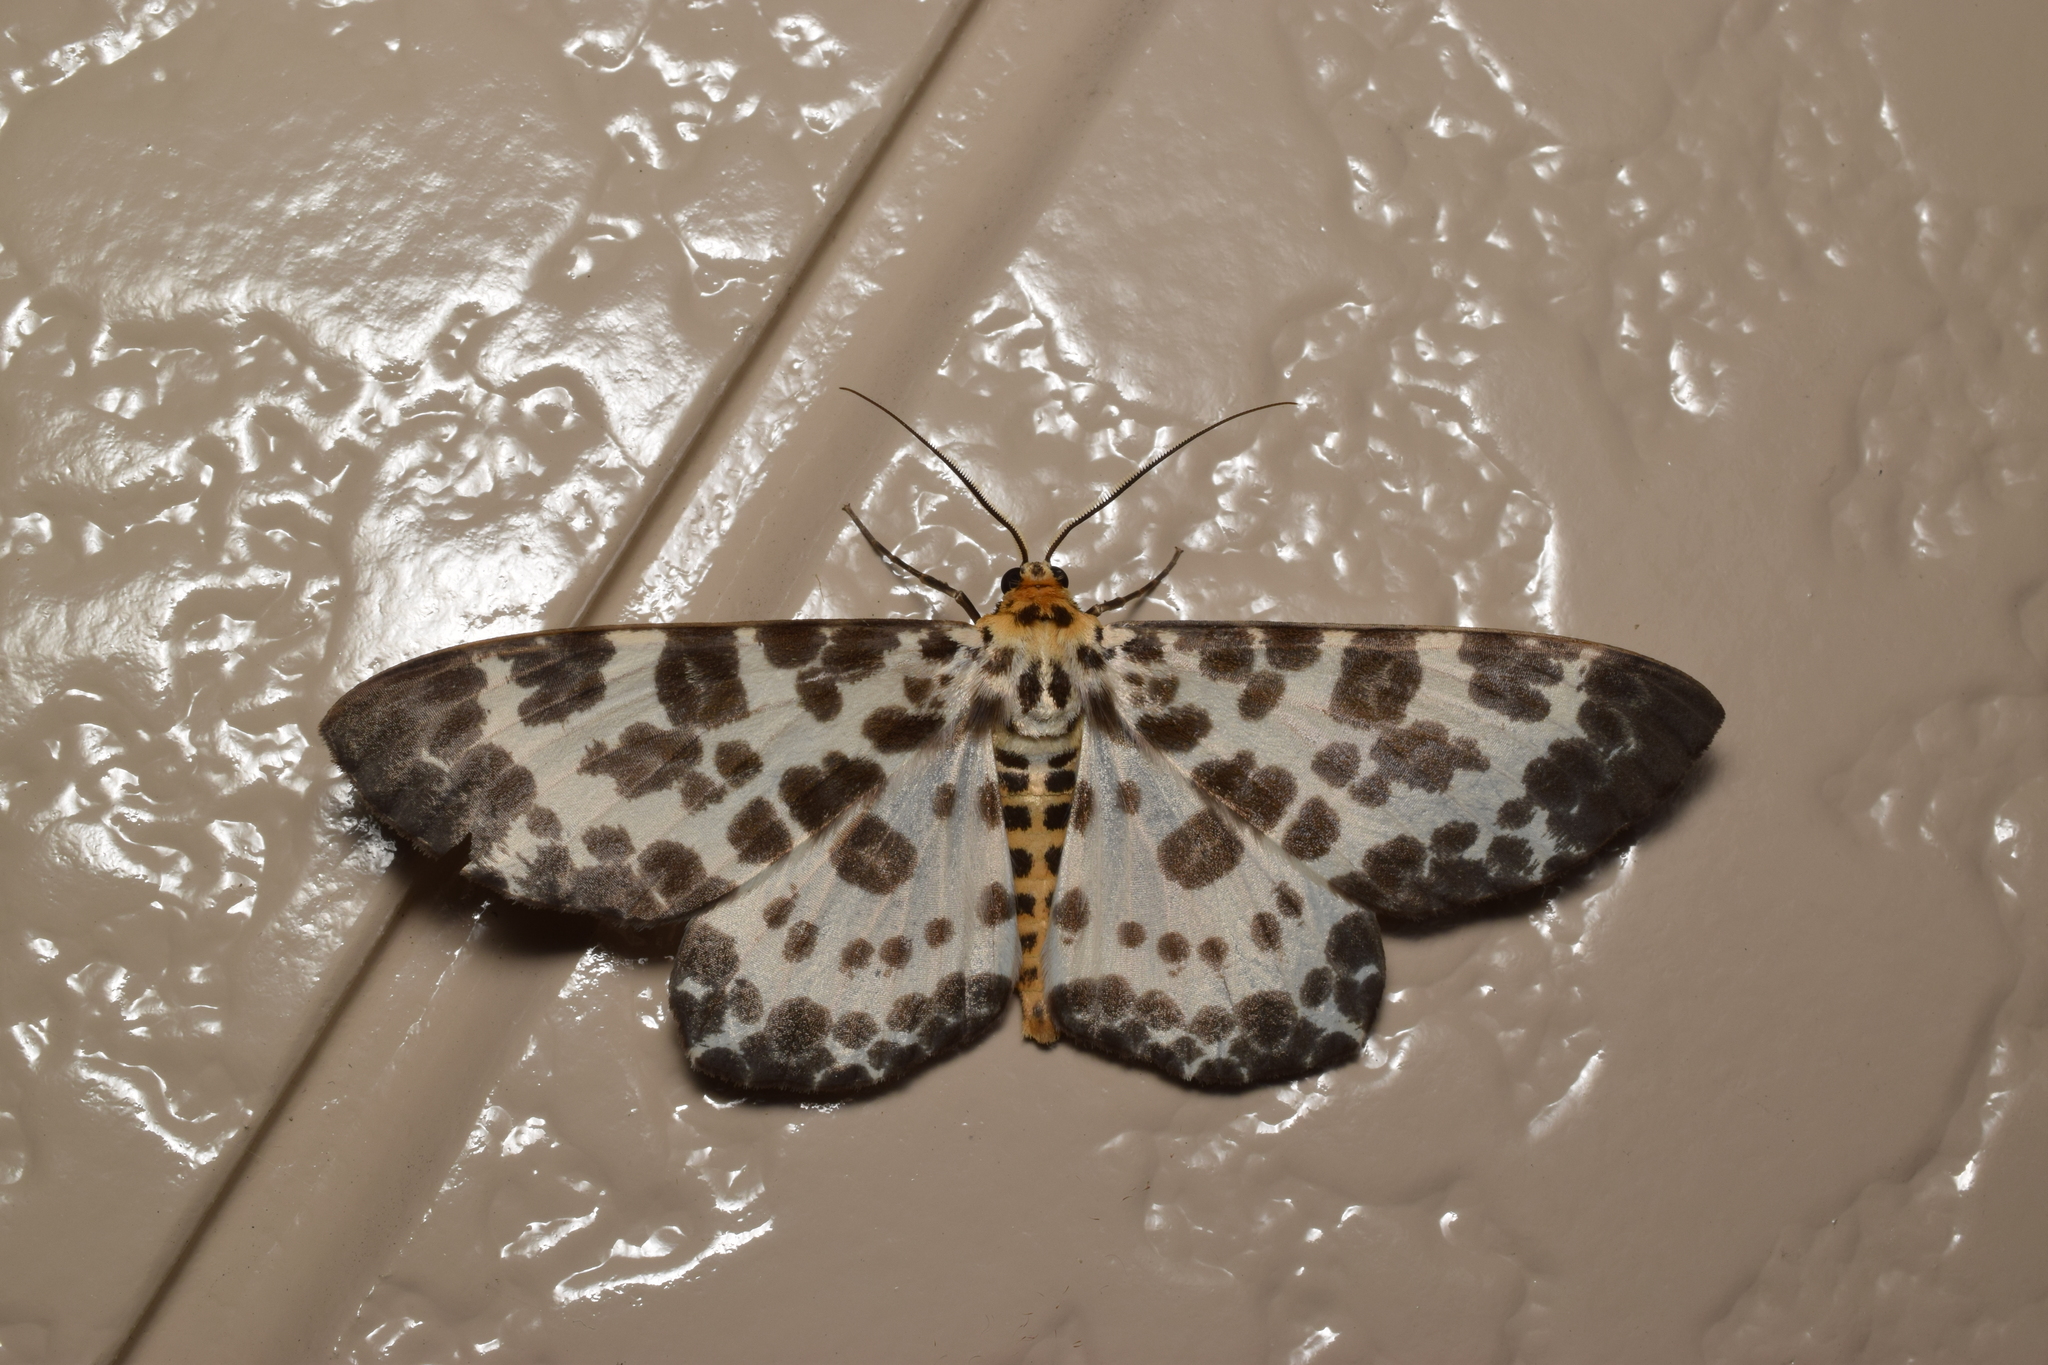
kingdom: Animalia
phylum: Arthropoda
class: Insecta
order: Lepidoptera
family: Geometridae
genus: Parapercnia
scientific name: Parapercnia giraffata
